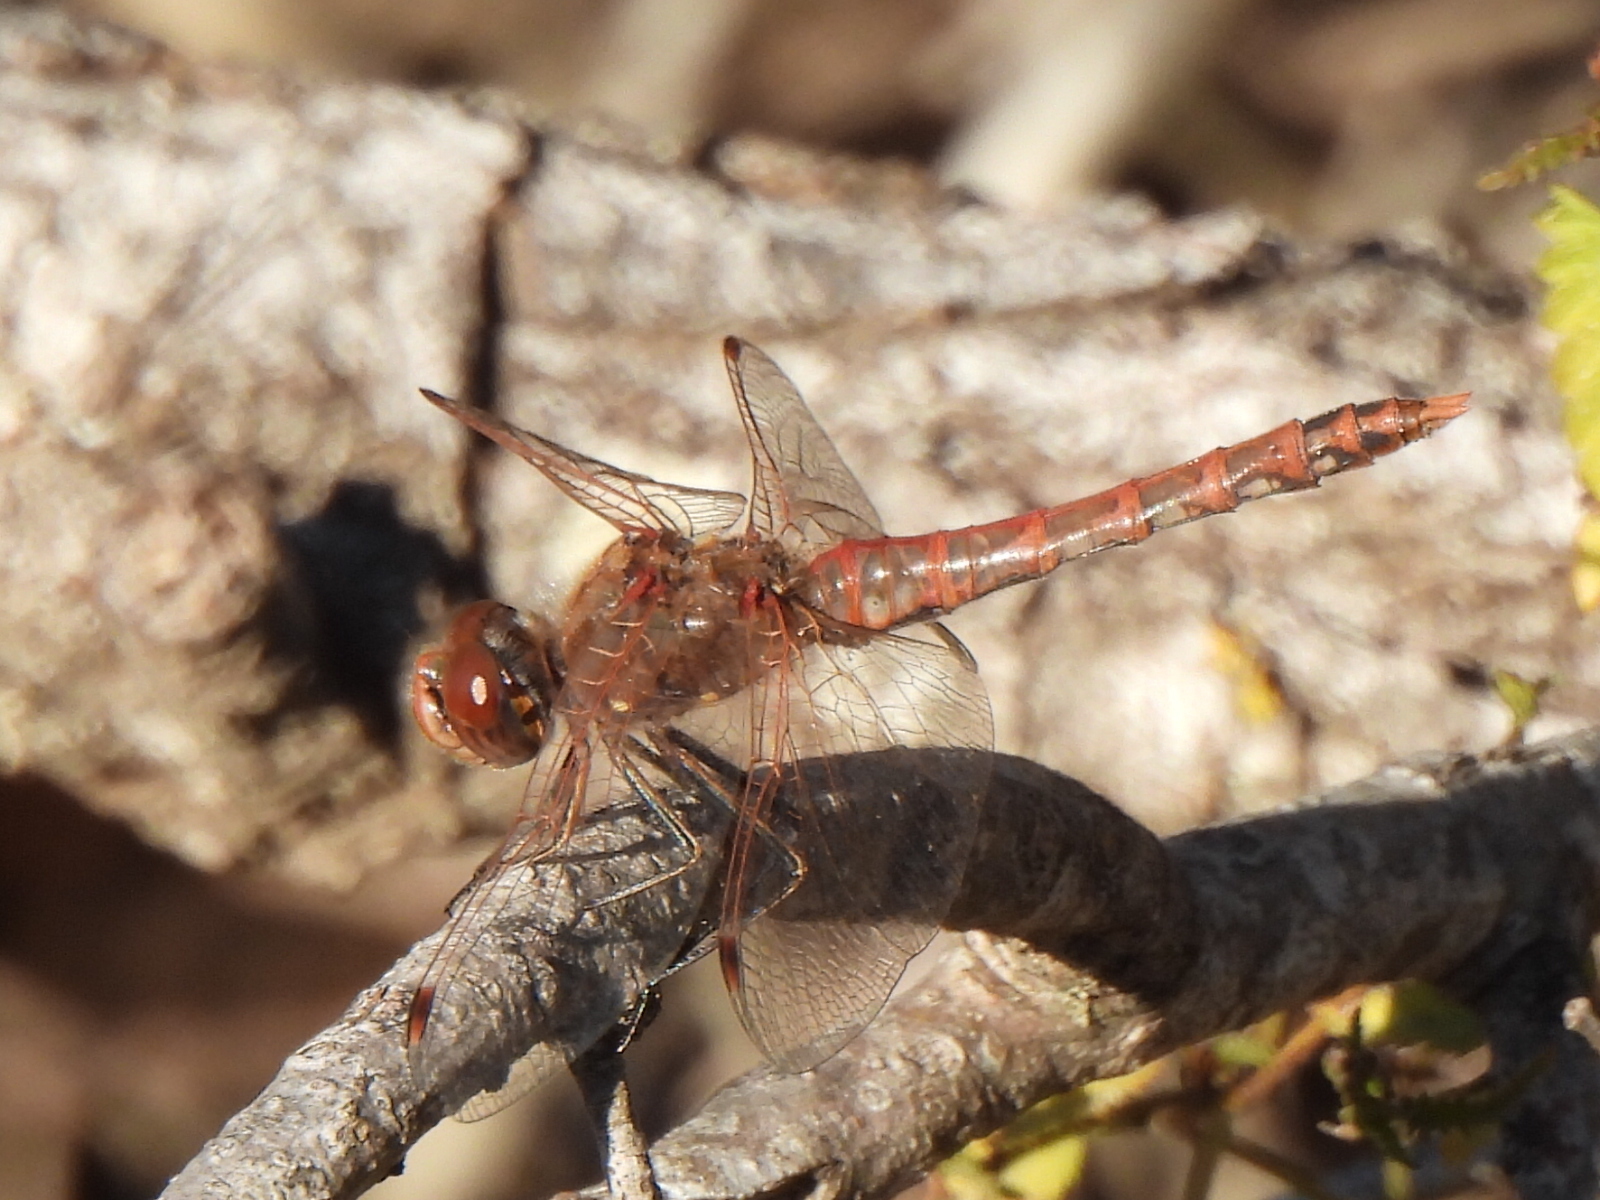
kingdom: Animalia
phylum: Arthropoda
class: Insecta
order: Odonata
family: Libellulidae
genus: Sympetrum
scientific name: Sympetrum corruptum
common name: Variegated meadowhawk
